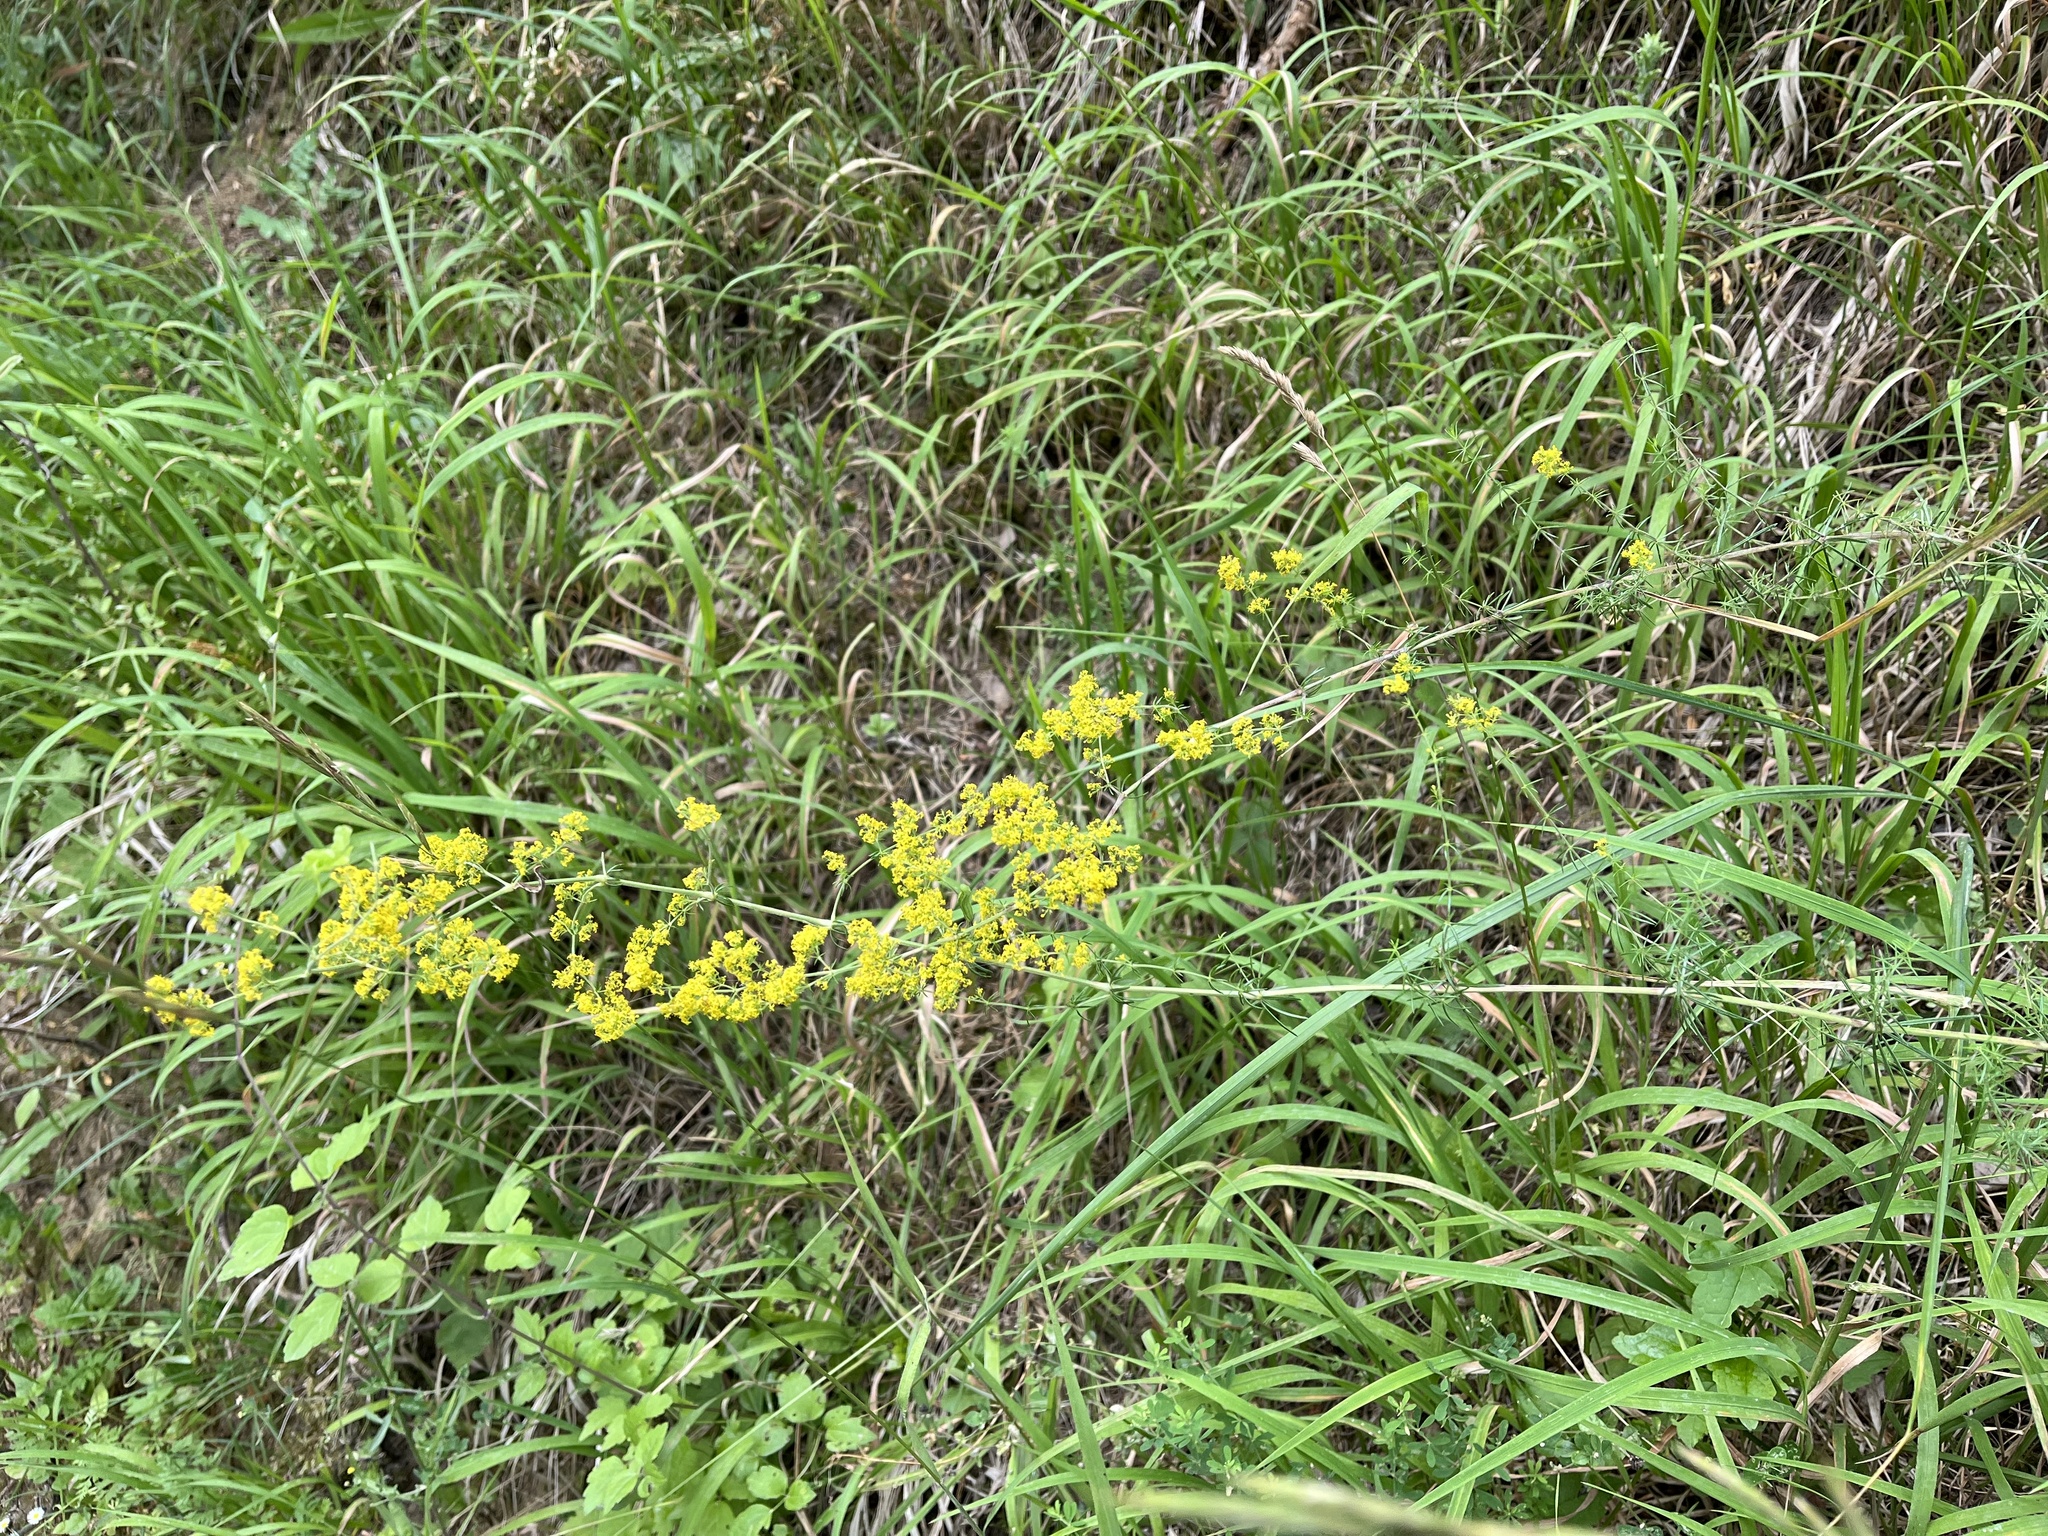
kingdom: Plantae
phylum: Tracheophyta
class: Magnoliopsida
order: Gentianales
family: Rubiaceae
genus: Galium
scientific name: Galium verum
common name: Lady's bedstraw
